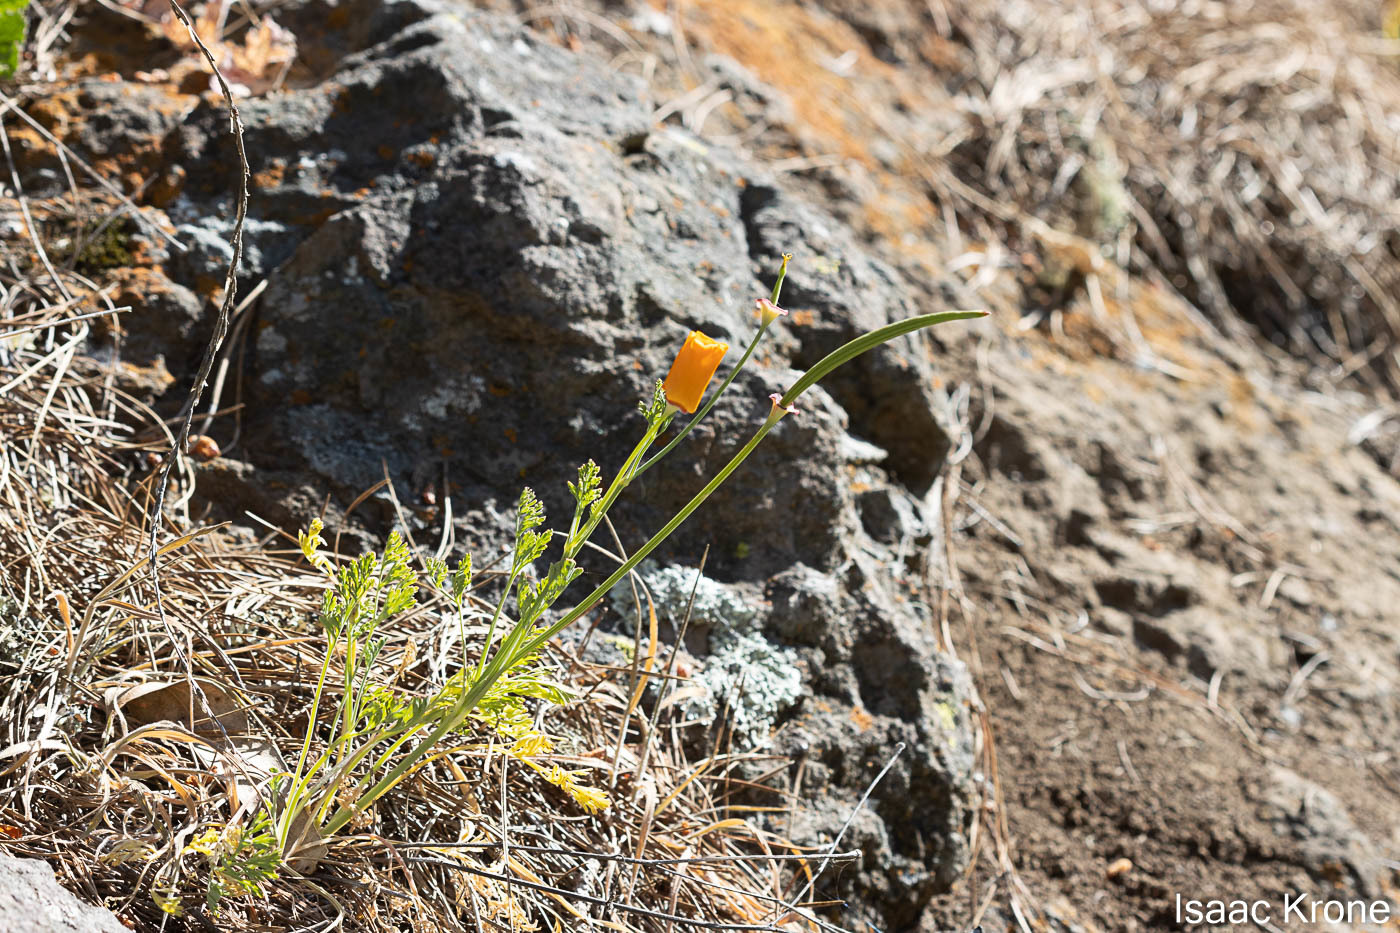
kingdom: Plantae
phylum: Tracheophyta
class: Magnoliopsida
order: Ranunculales
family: Papaveraceae
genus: Eschscholzia
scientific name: Eschscholzia californica
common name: California poppy
